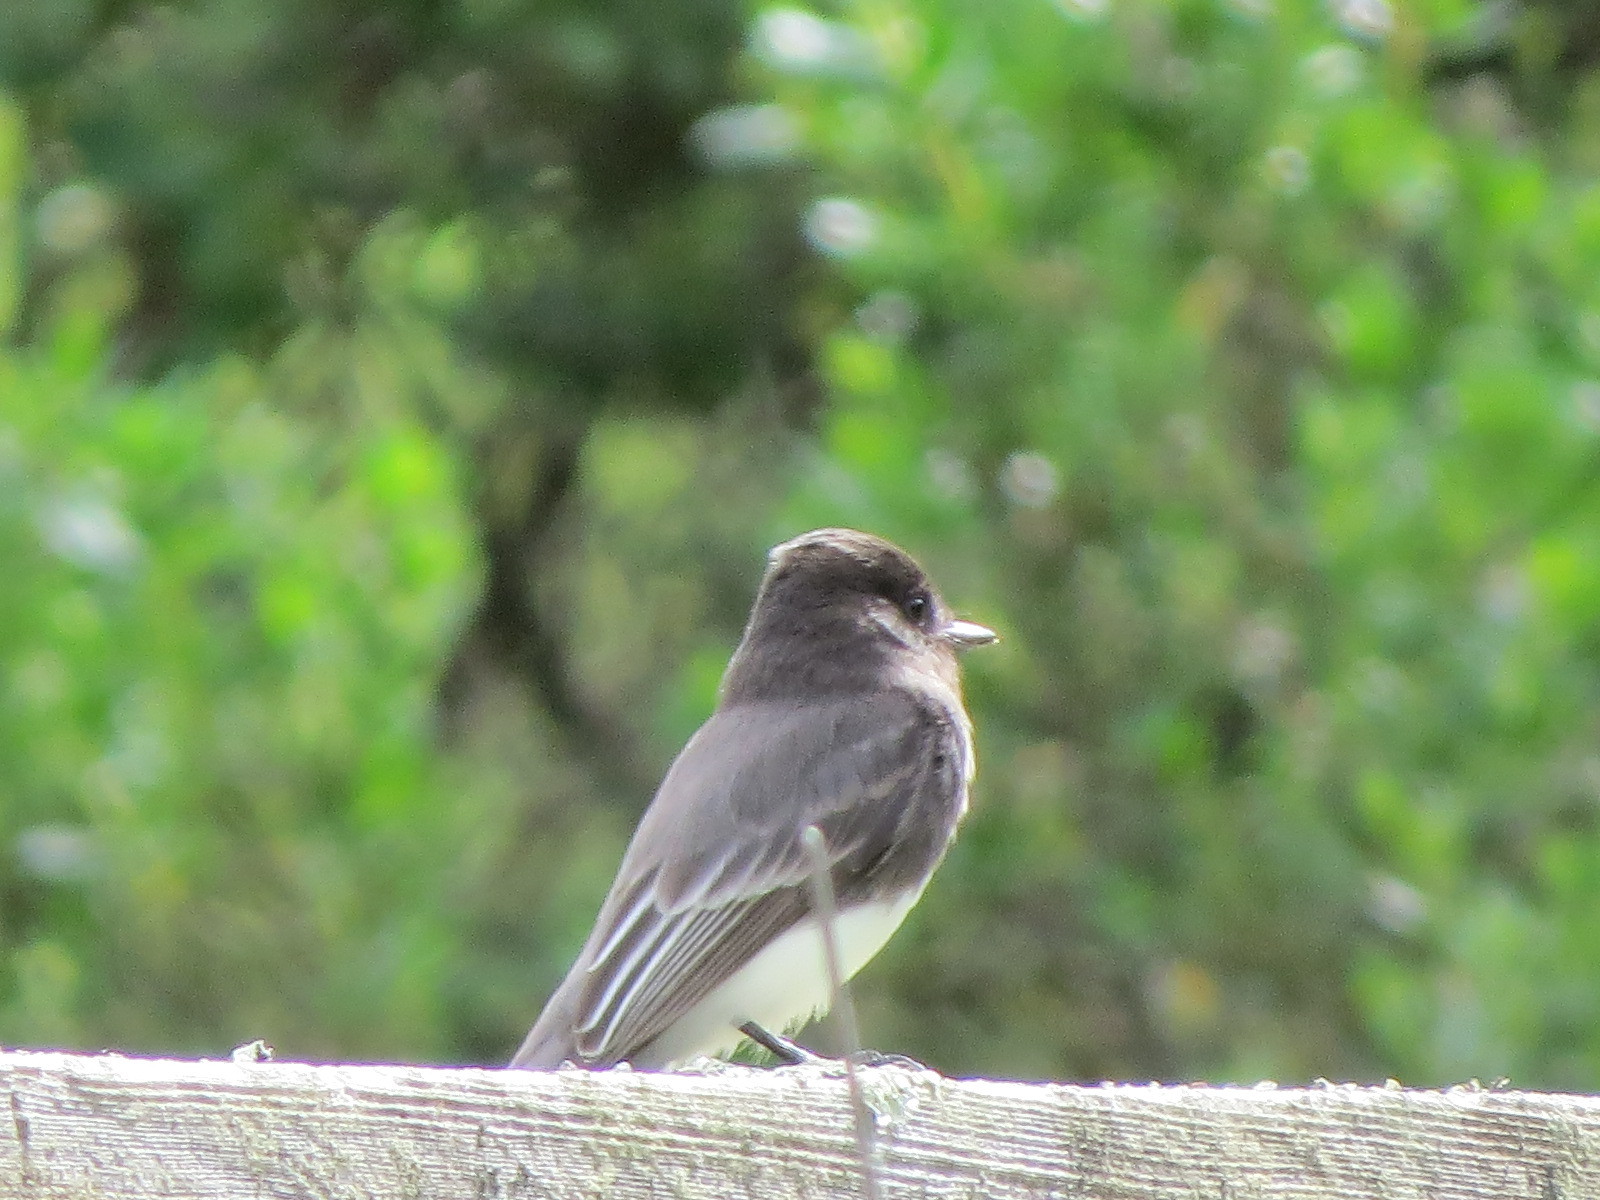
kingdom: Animalia
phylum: Chordata
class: Aves
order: Passeriformes
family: Tyrannidae
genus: Sayornis
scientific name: Sayornis nigricans
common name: Black phoebe
